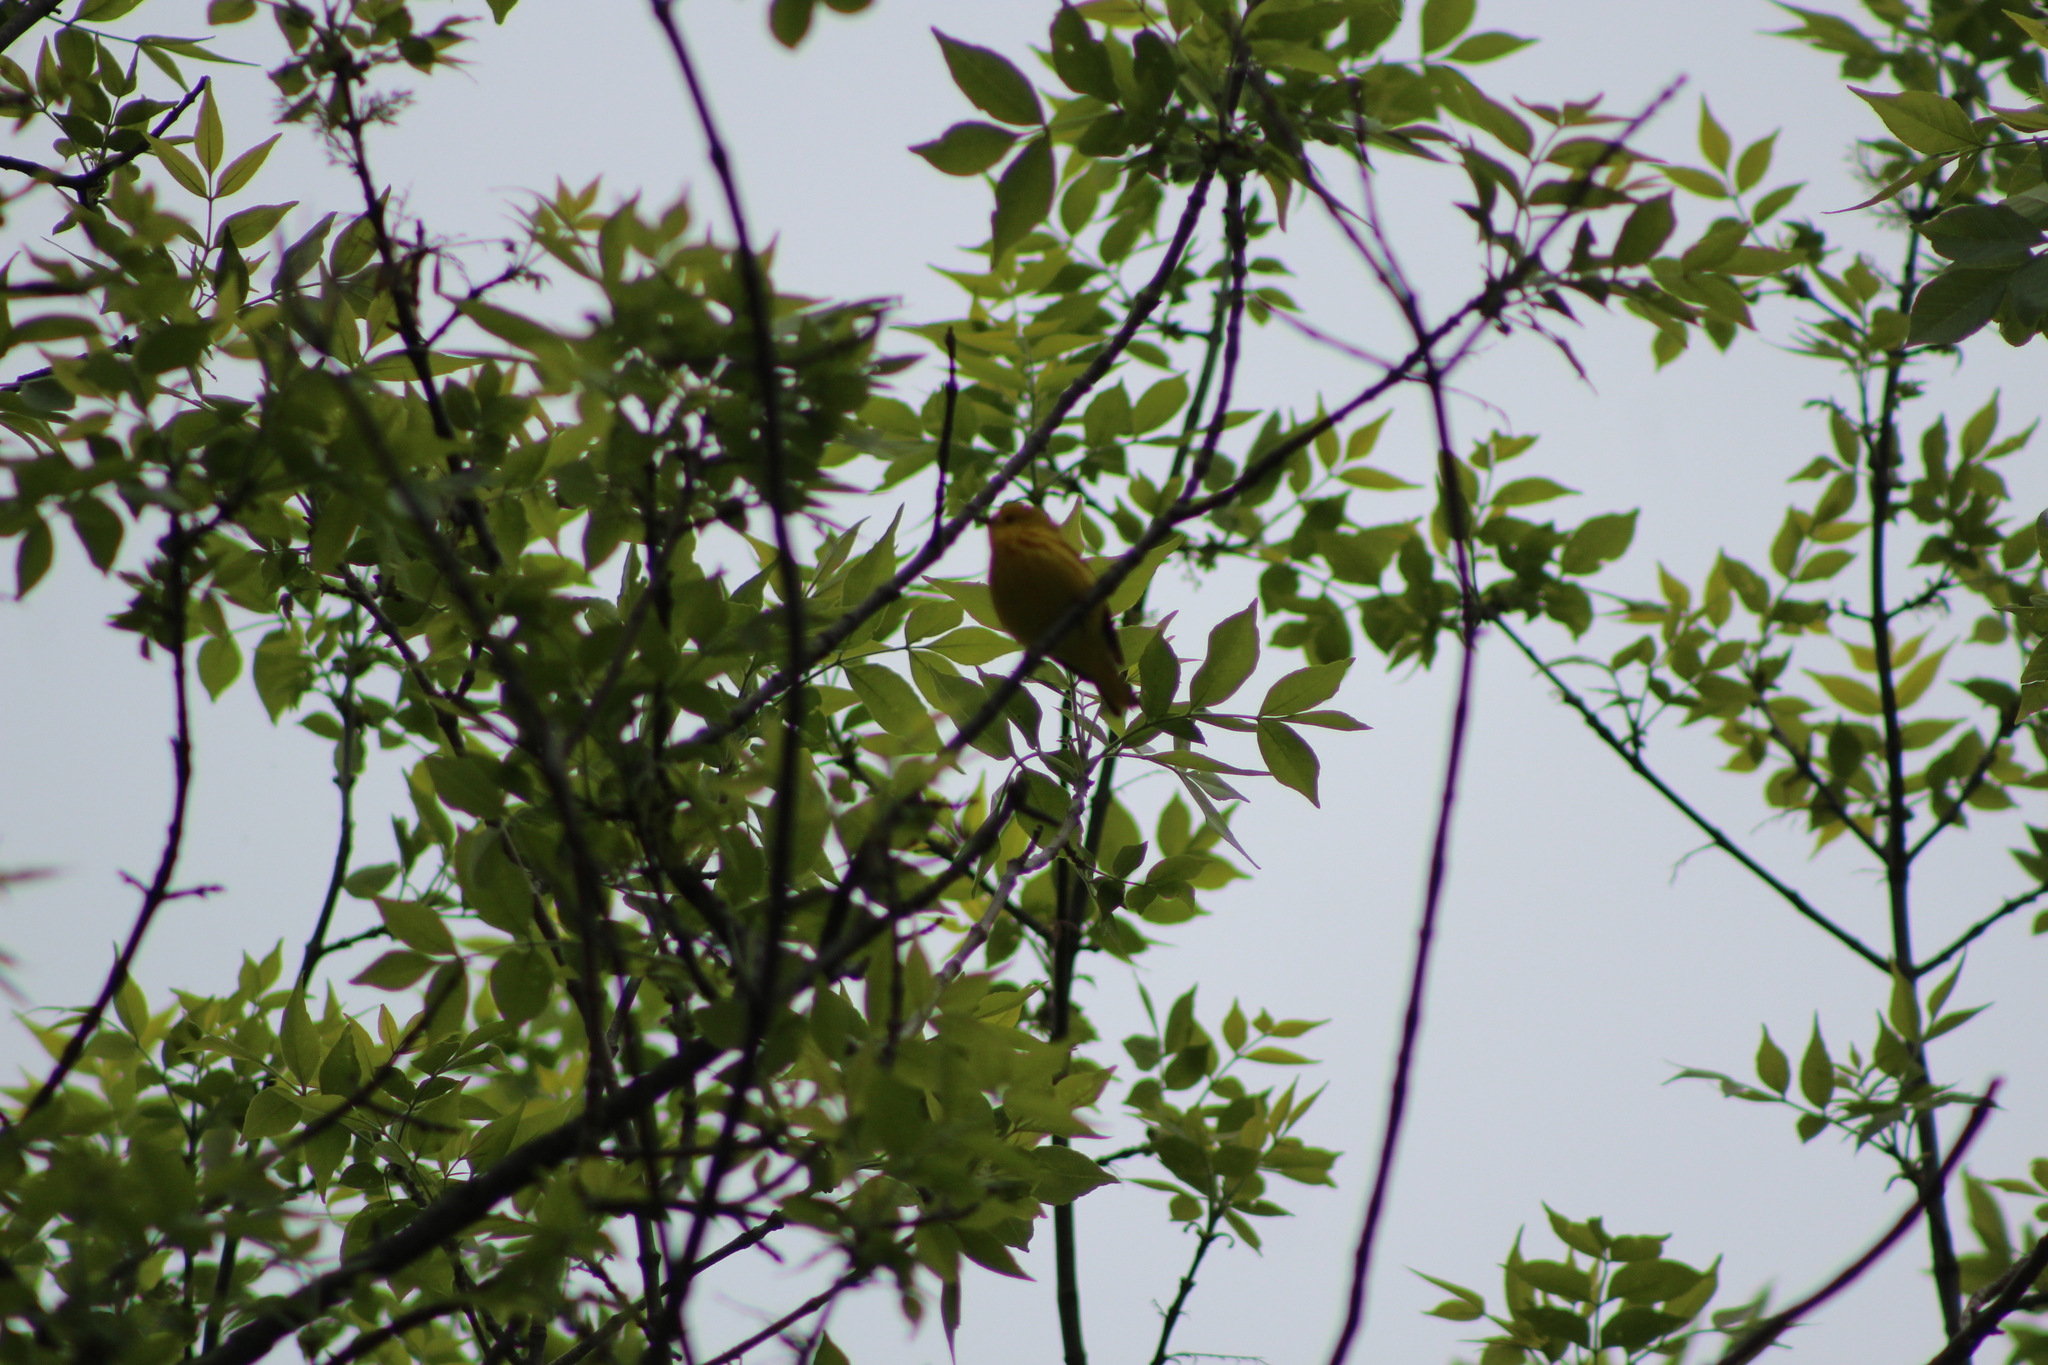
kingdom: Animalia
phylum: Chordata
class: Aves
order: Passeriformes
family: Parulidae
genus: Setophaga
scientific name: Setophaga petechia
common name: Yellow warbler
